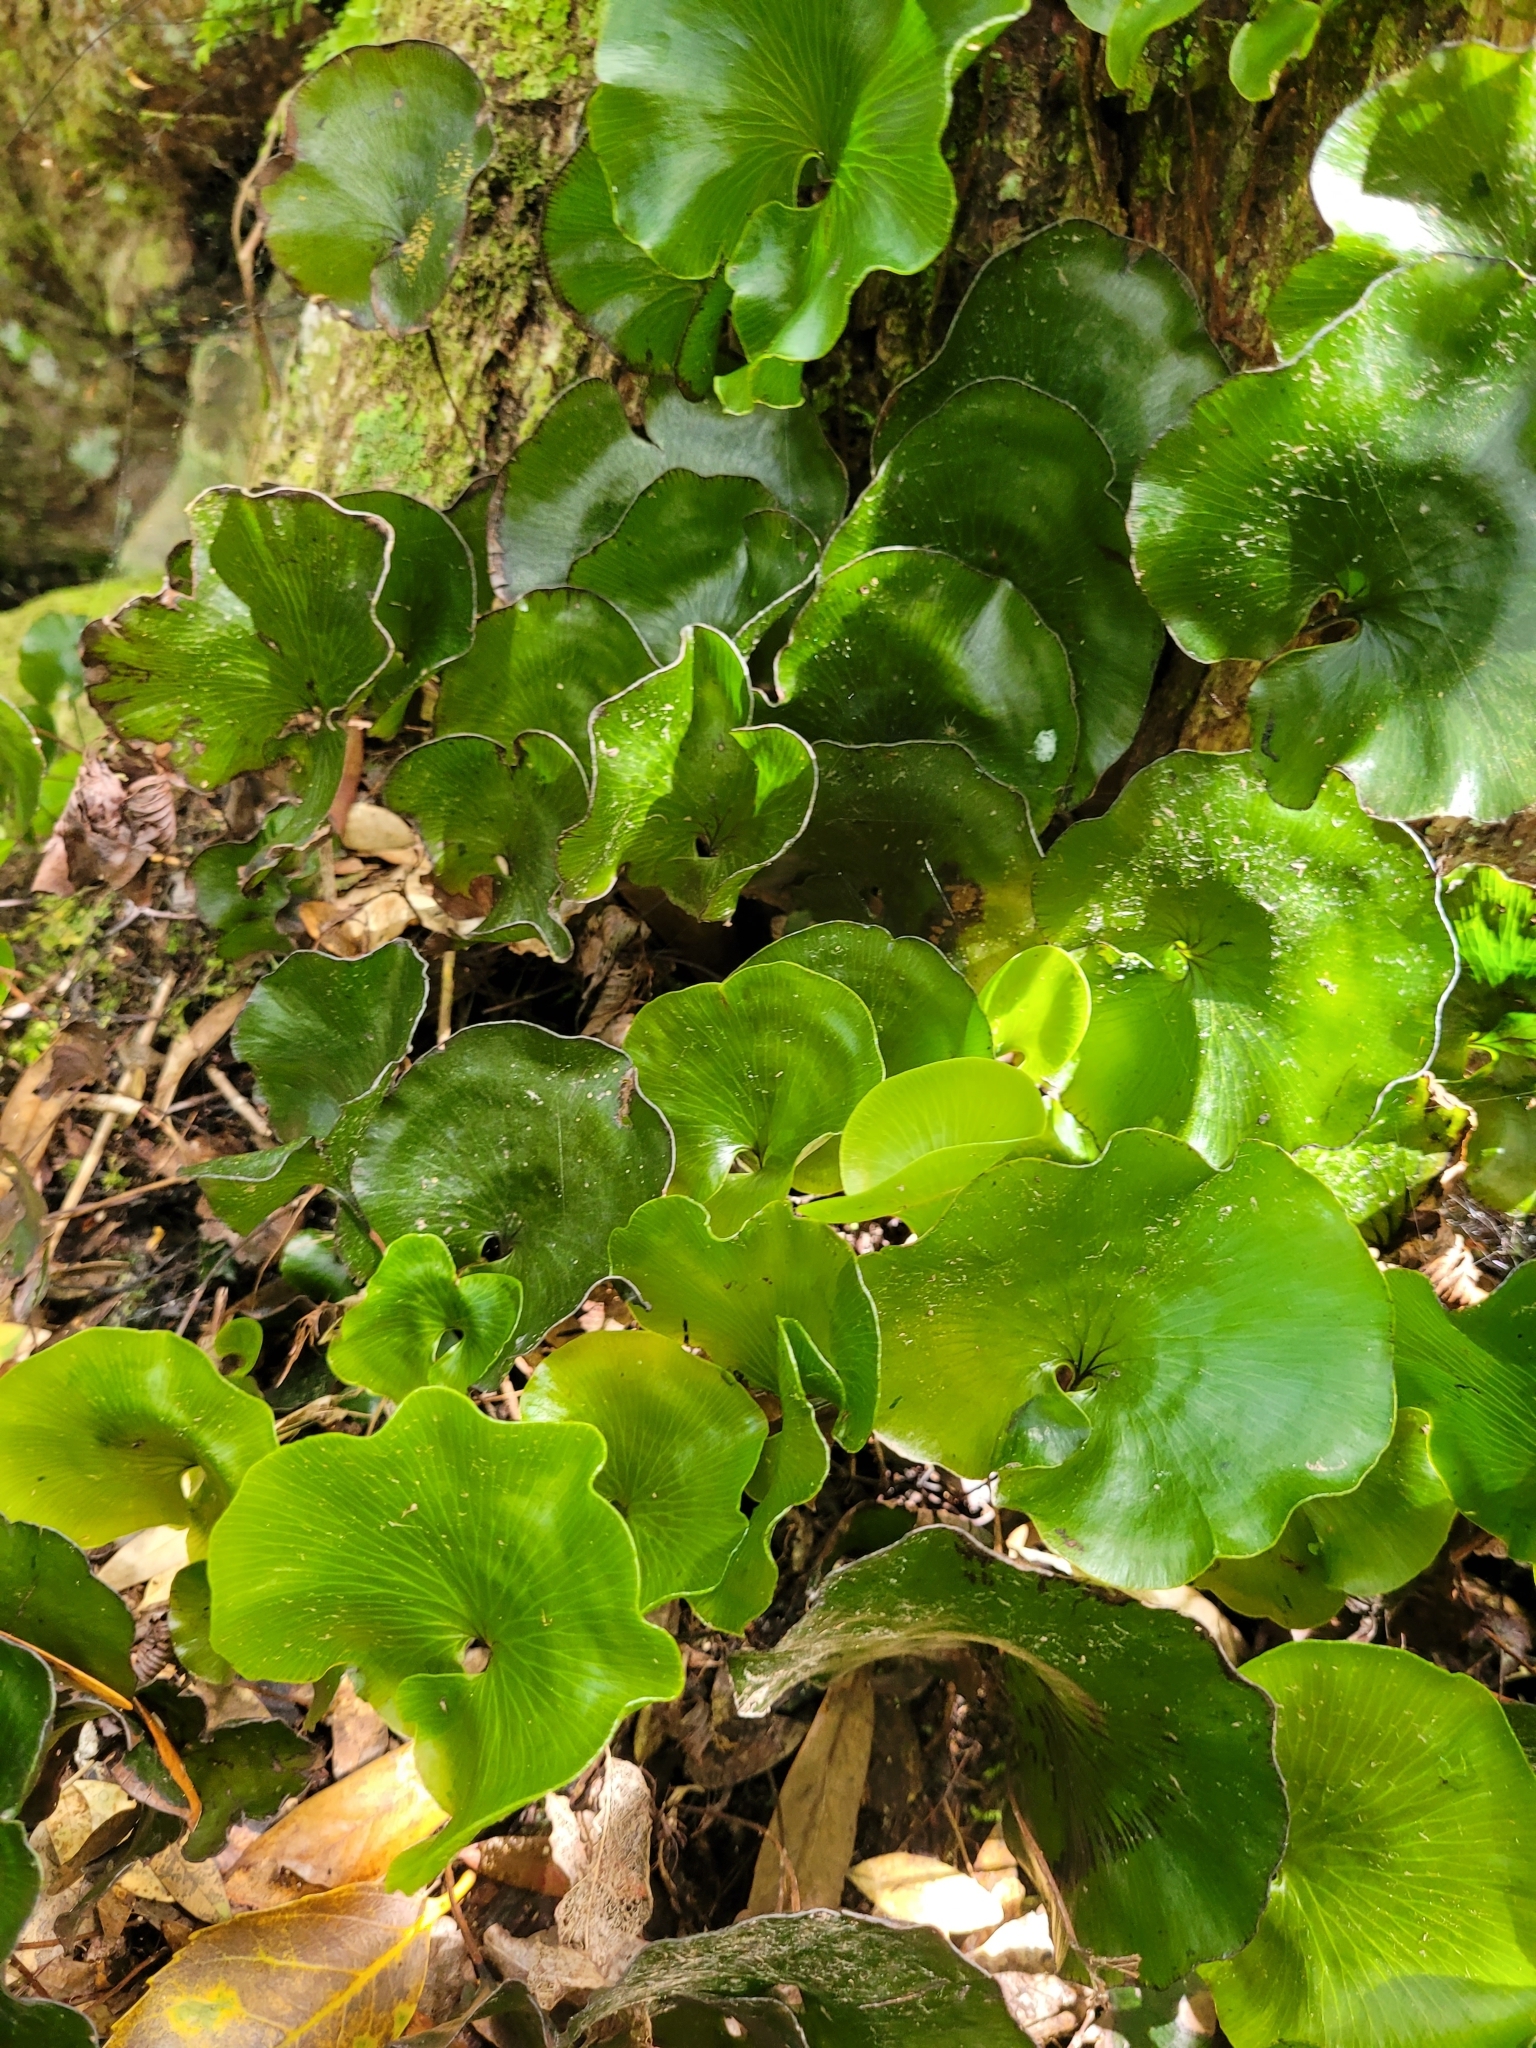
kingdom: Plantae
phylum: Tracheophyta
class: Polypodiopsida
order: Hymenophyllales
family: Hymenophyllaceae
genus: Hymenophyllum
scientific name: Hymenophyllum nephrophyllum
